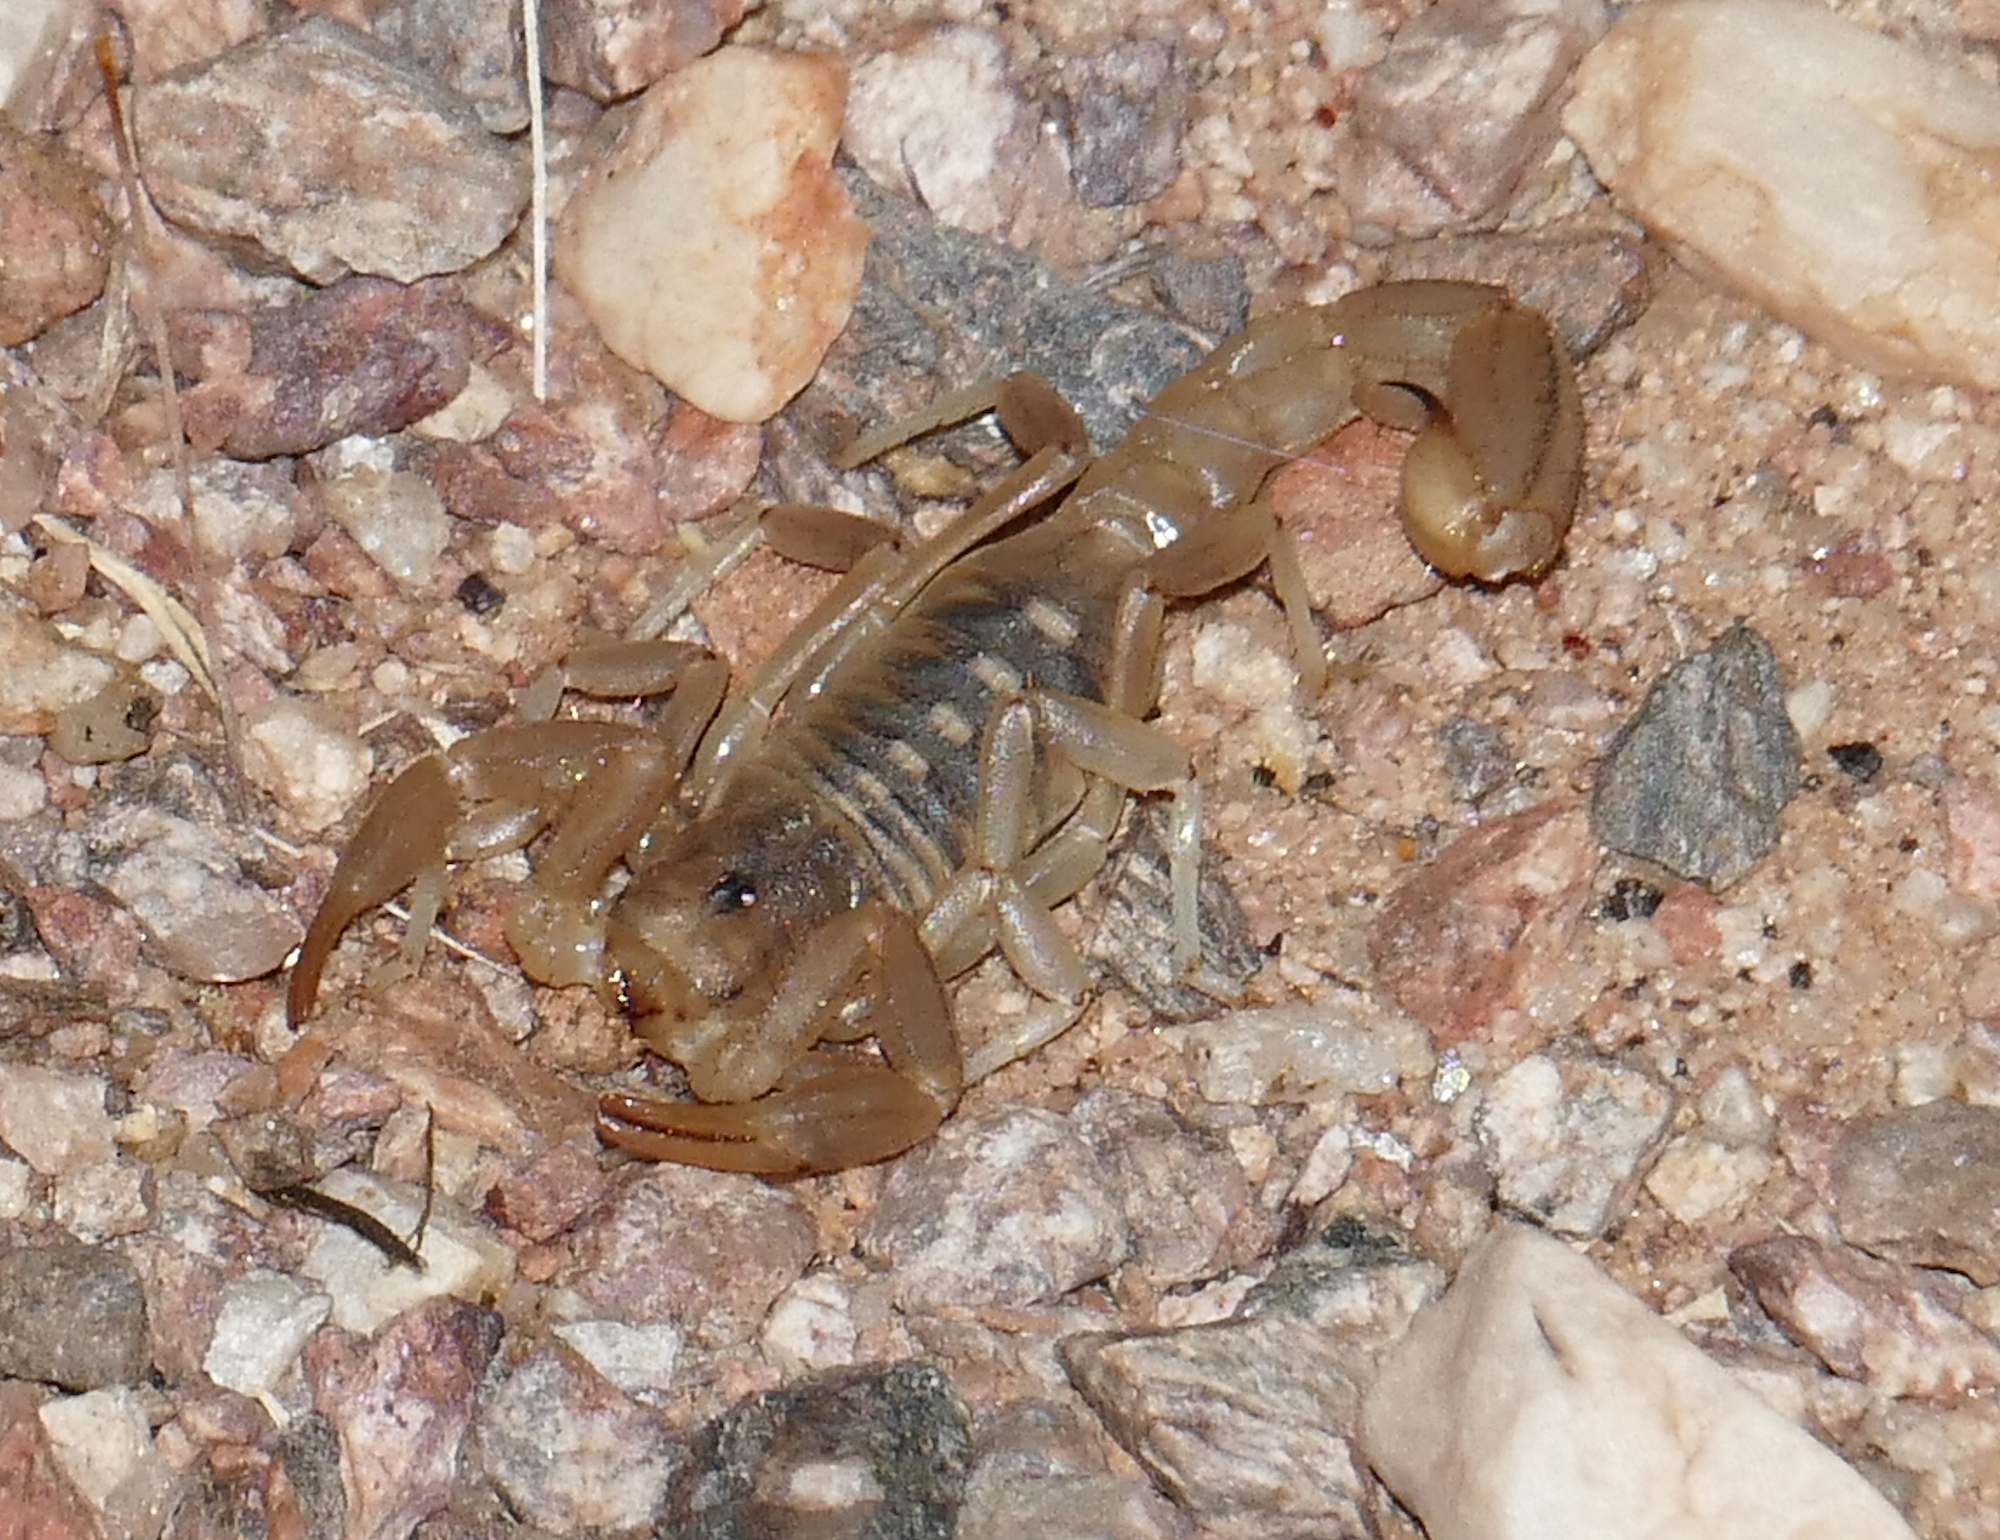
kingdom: Animalia
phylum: Arthropoda
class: Arachnida
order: Scorpiones
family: Vaejovidae
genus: Paravaejovis
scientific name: Paravaejovis spinigerus
